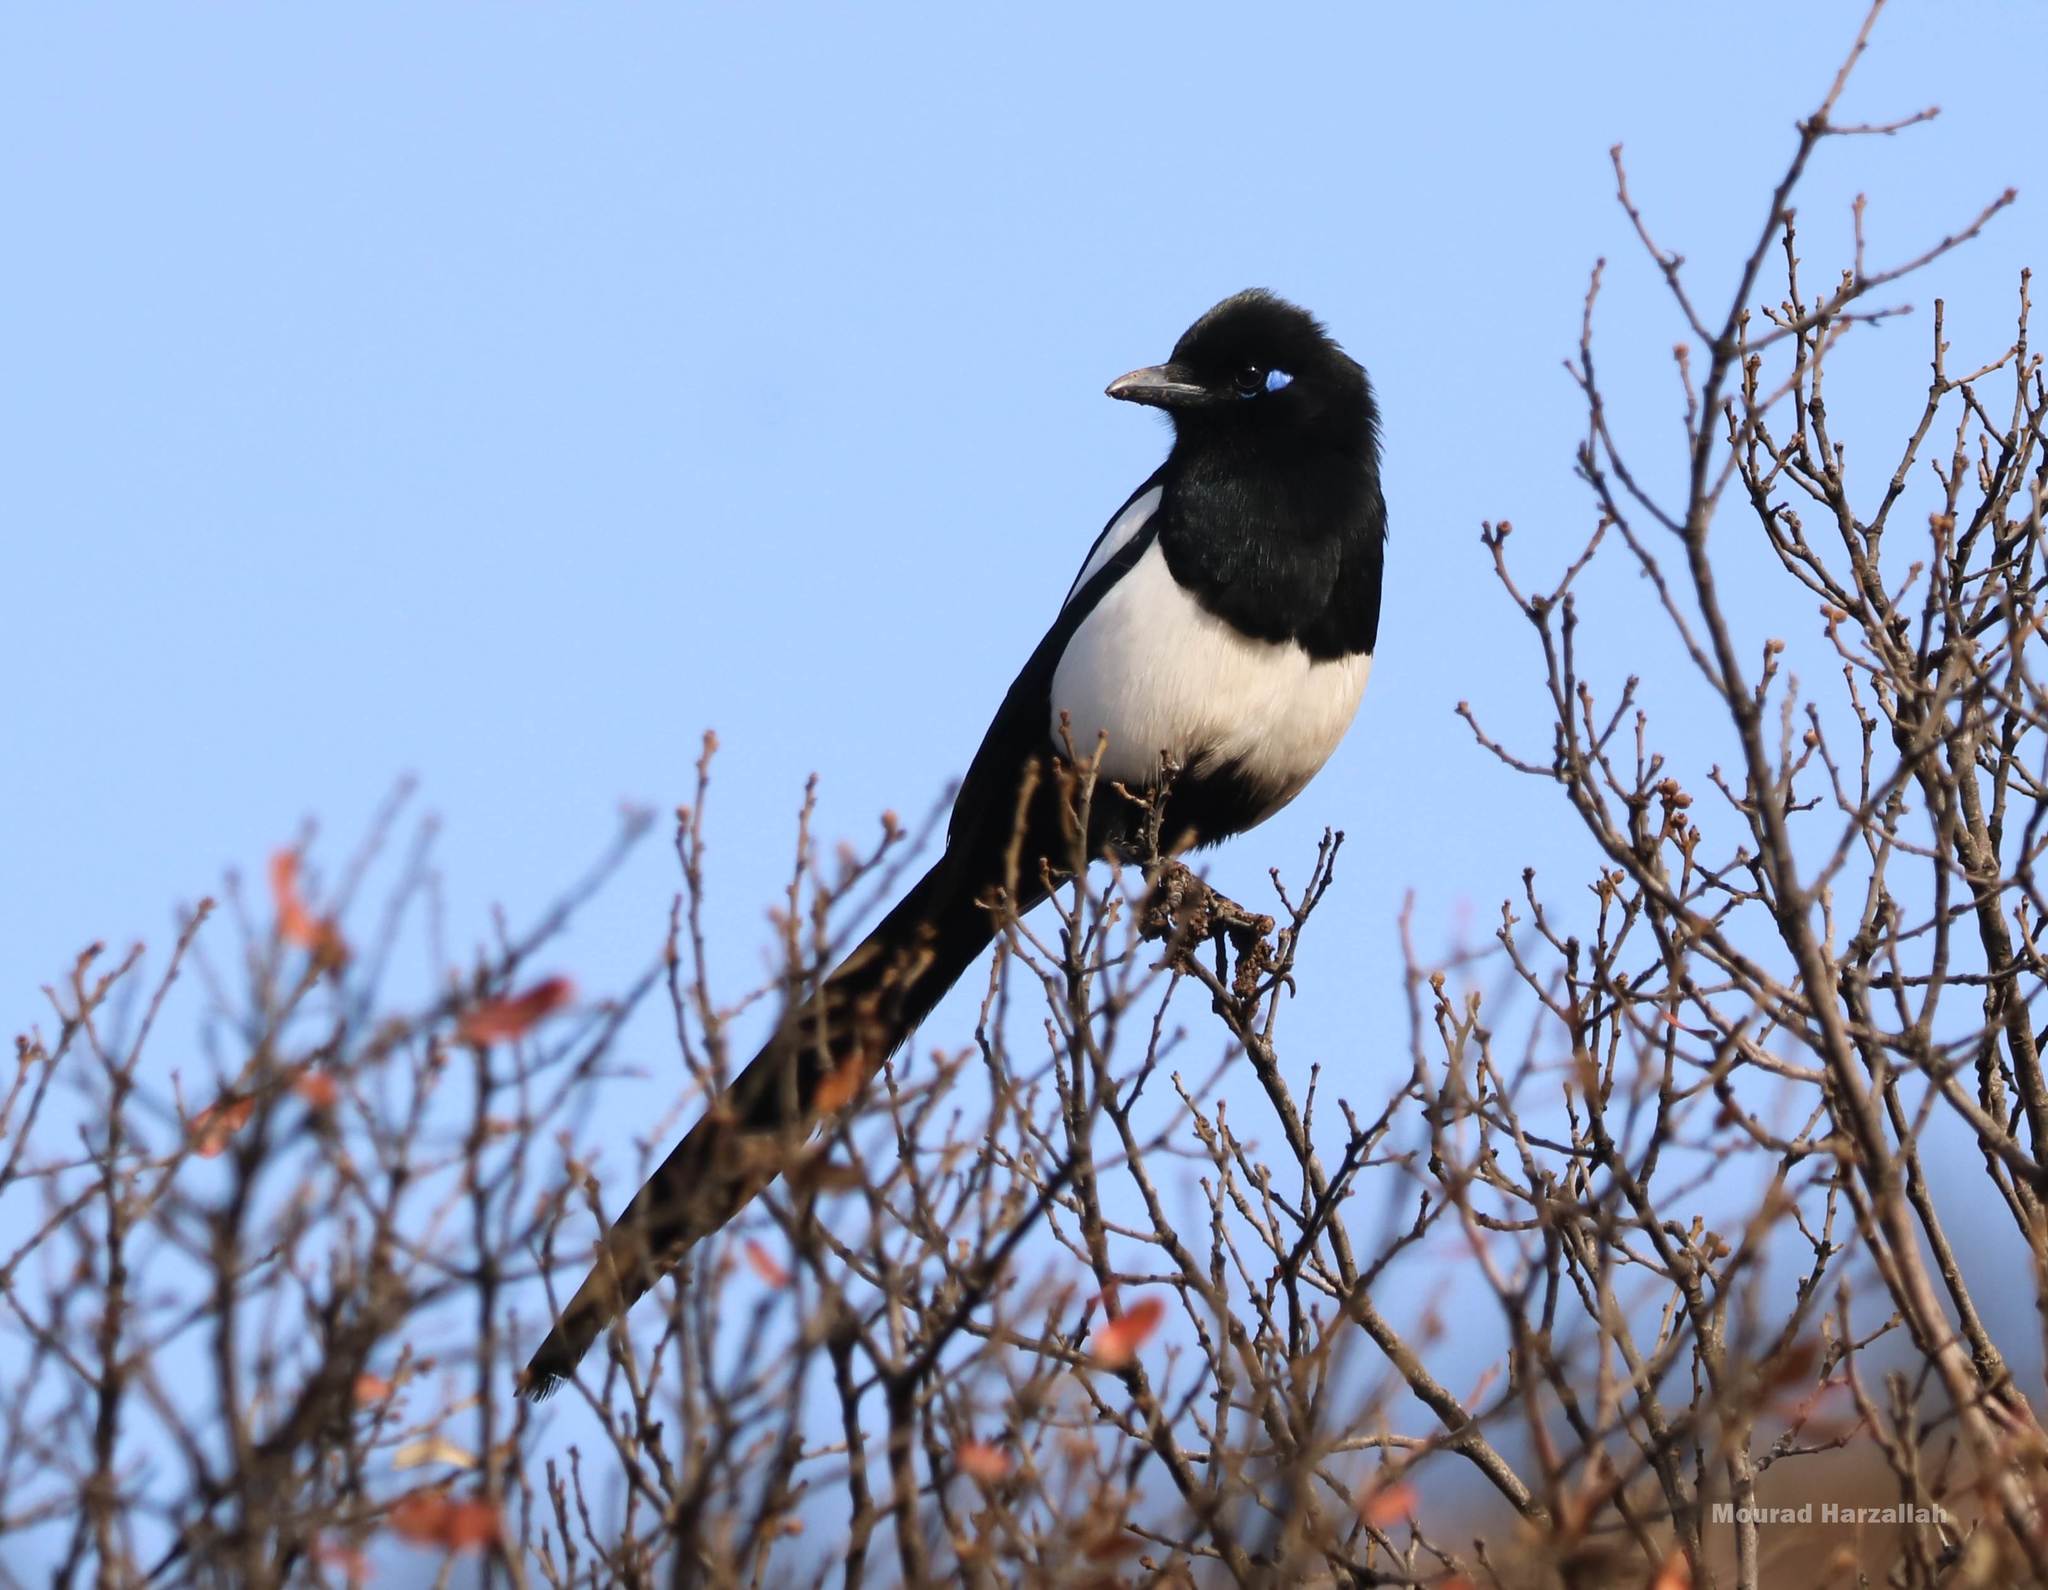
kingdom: Animalia
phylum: Chordata
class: Aves
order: Passeriformes
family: Corvidae
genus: Pica
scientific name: Pica mauritanica
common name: Maghreb magpie
